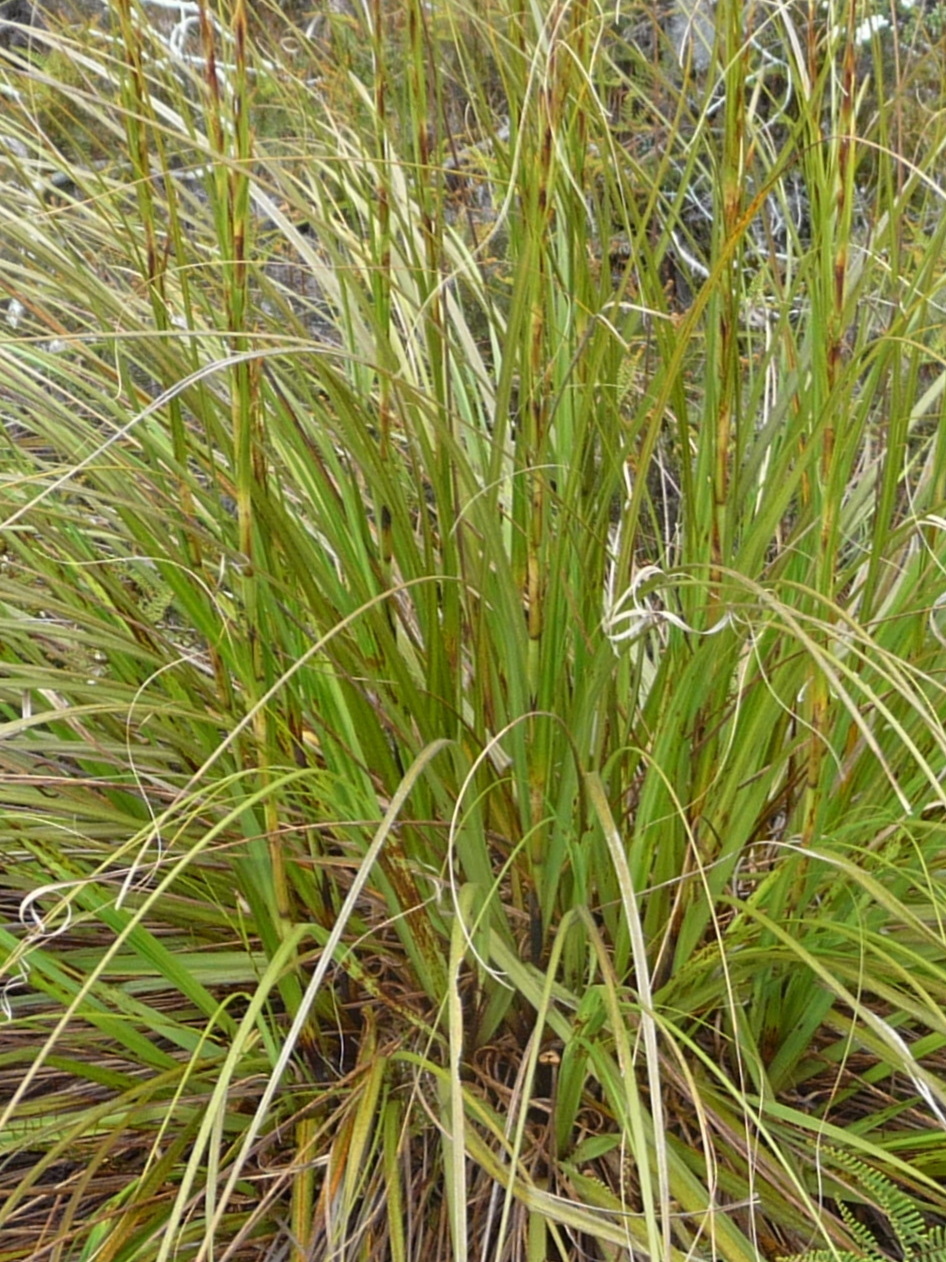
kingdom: Plantae
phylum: Tracheophyta
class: Liliopsida
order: Poales
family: Cyperaceae
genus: Gahnia
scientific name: Gahnia rigida
